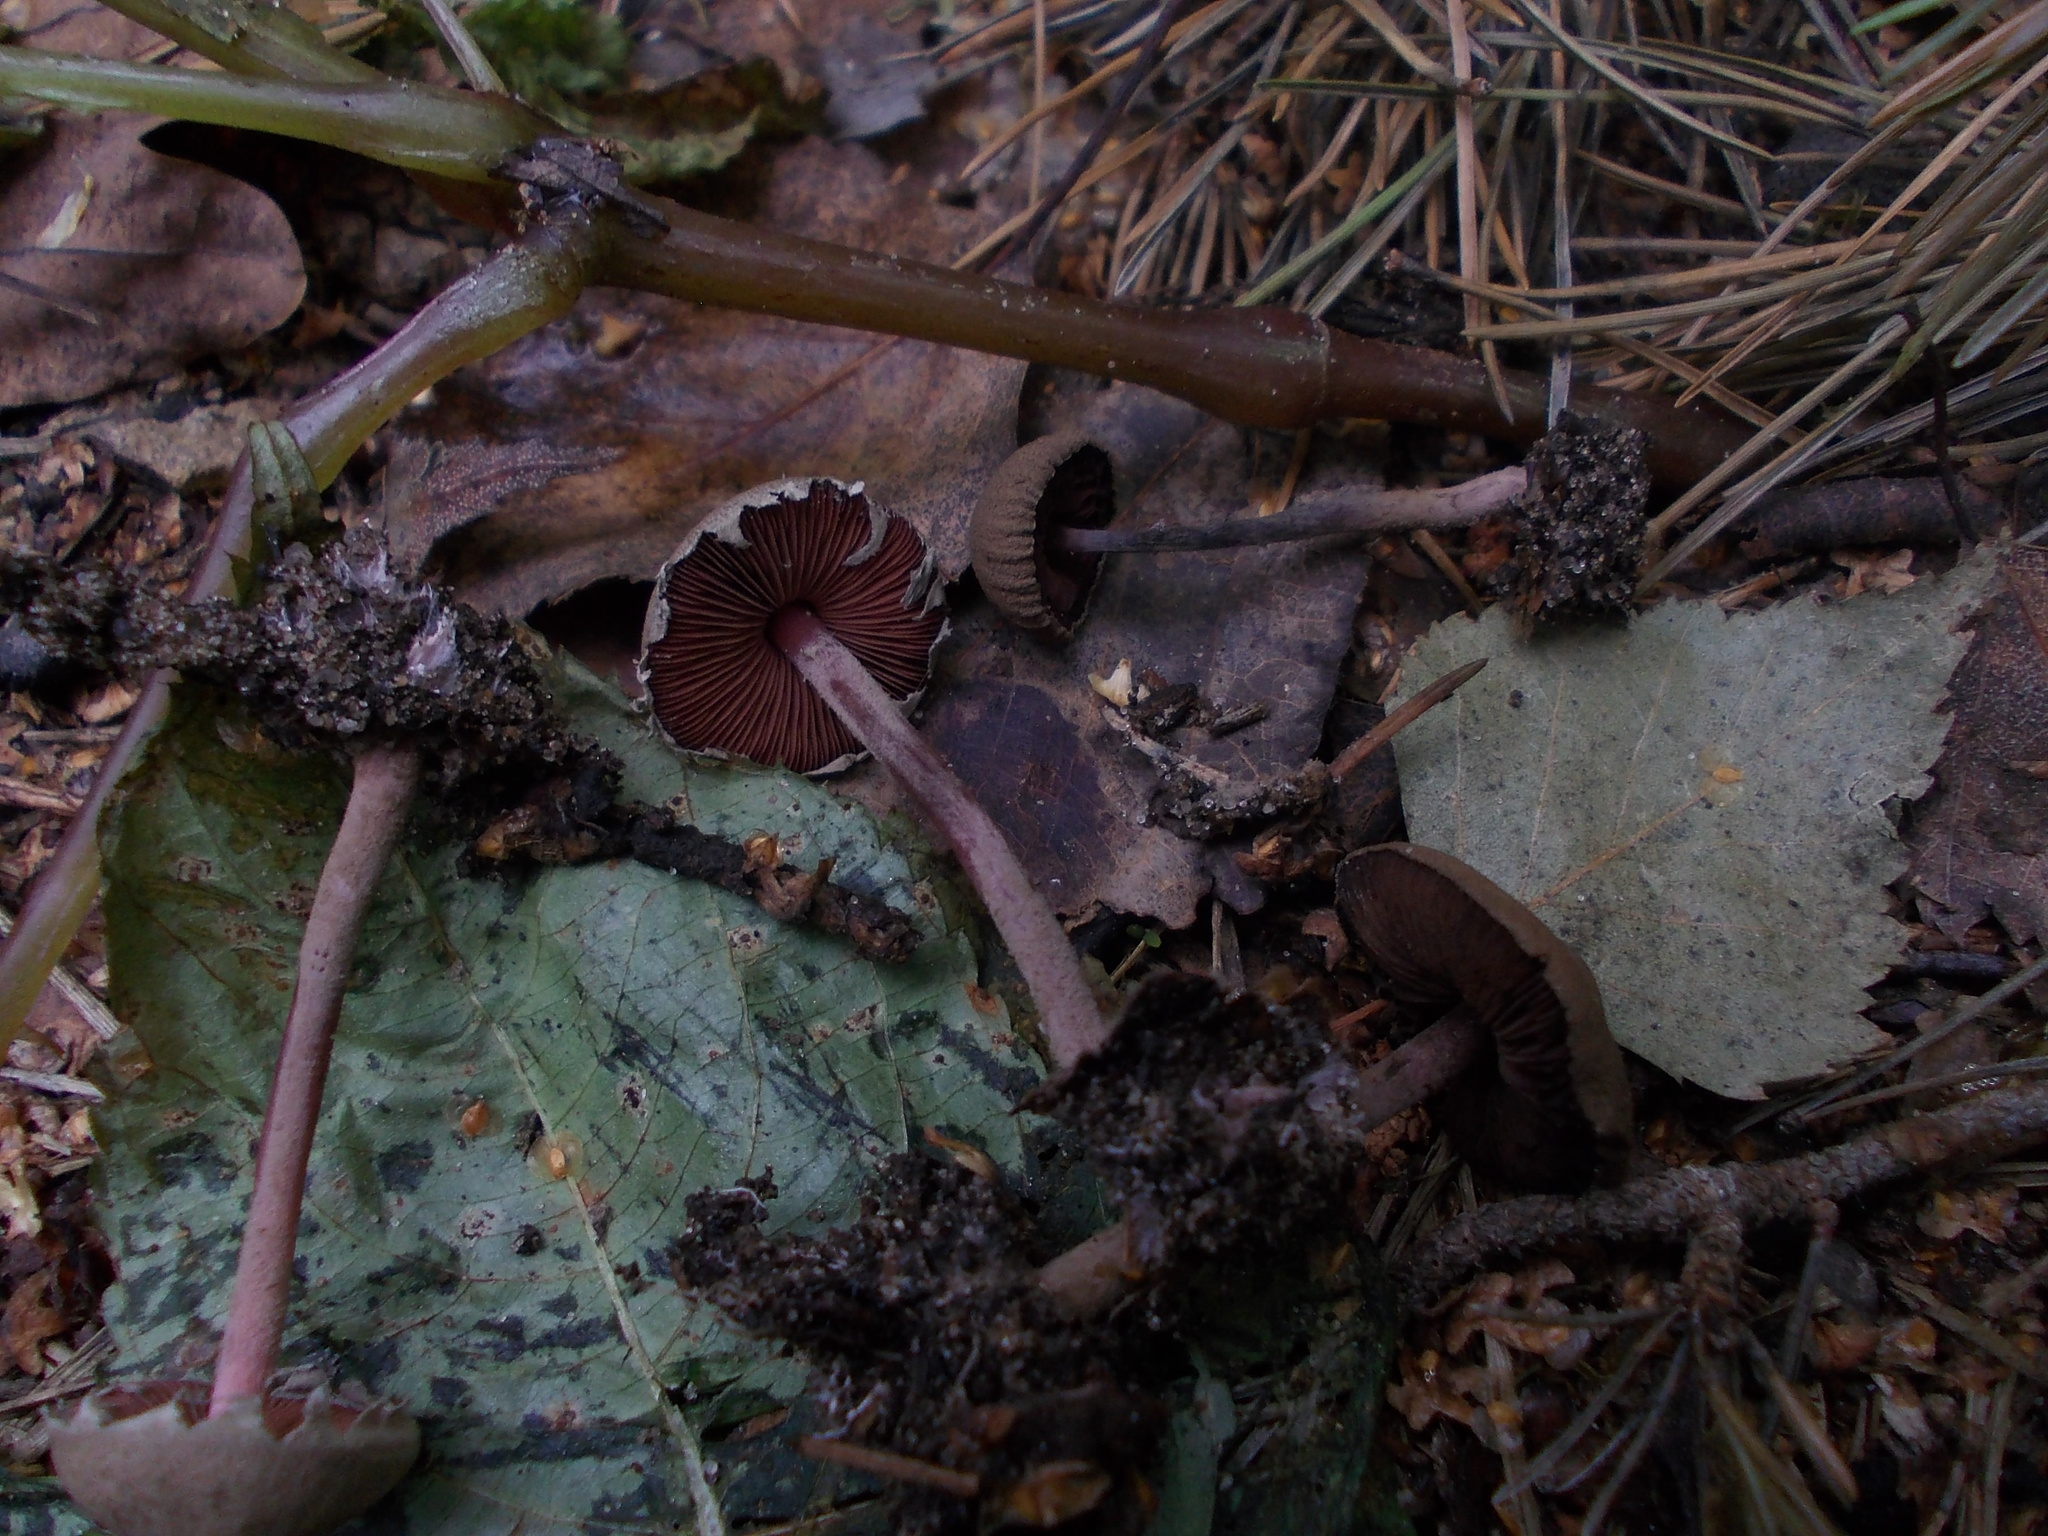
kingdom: Fungi
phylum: Basidiomycota
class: Agaricomycetes
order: Agaricales
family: Agaricaceae
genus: Melanophyllum
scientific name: Melanophyllum haematospermum
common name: Redspored dapperling
